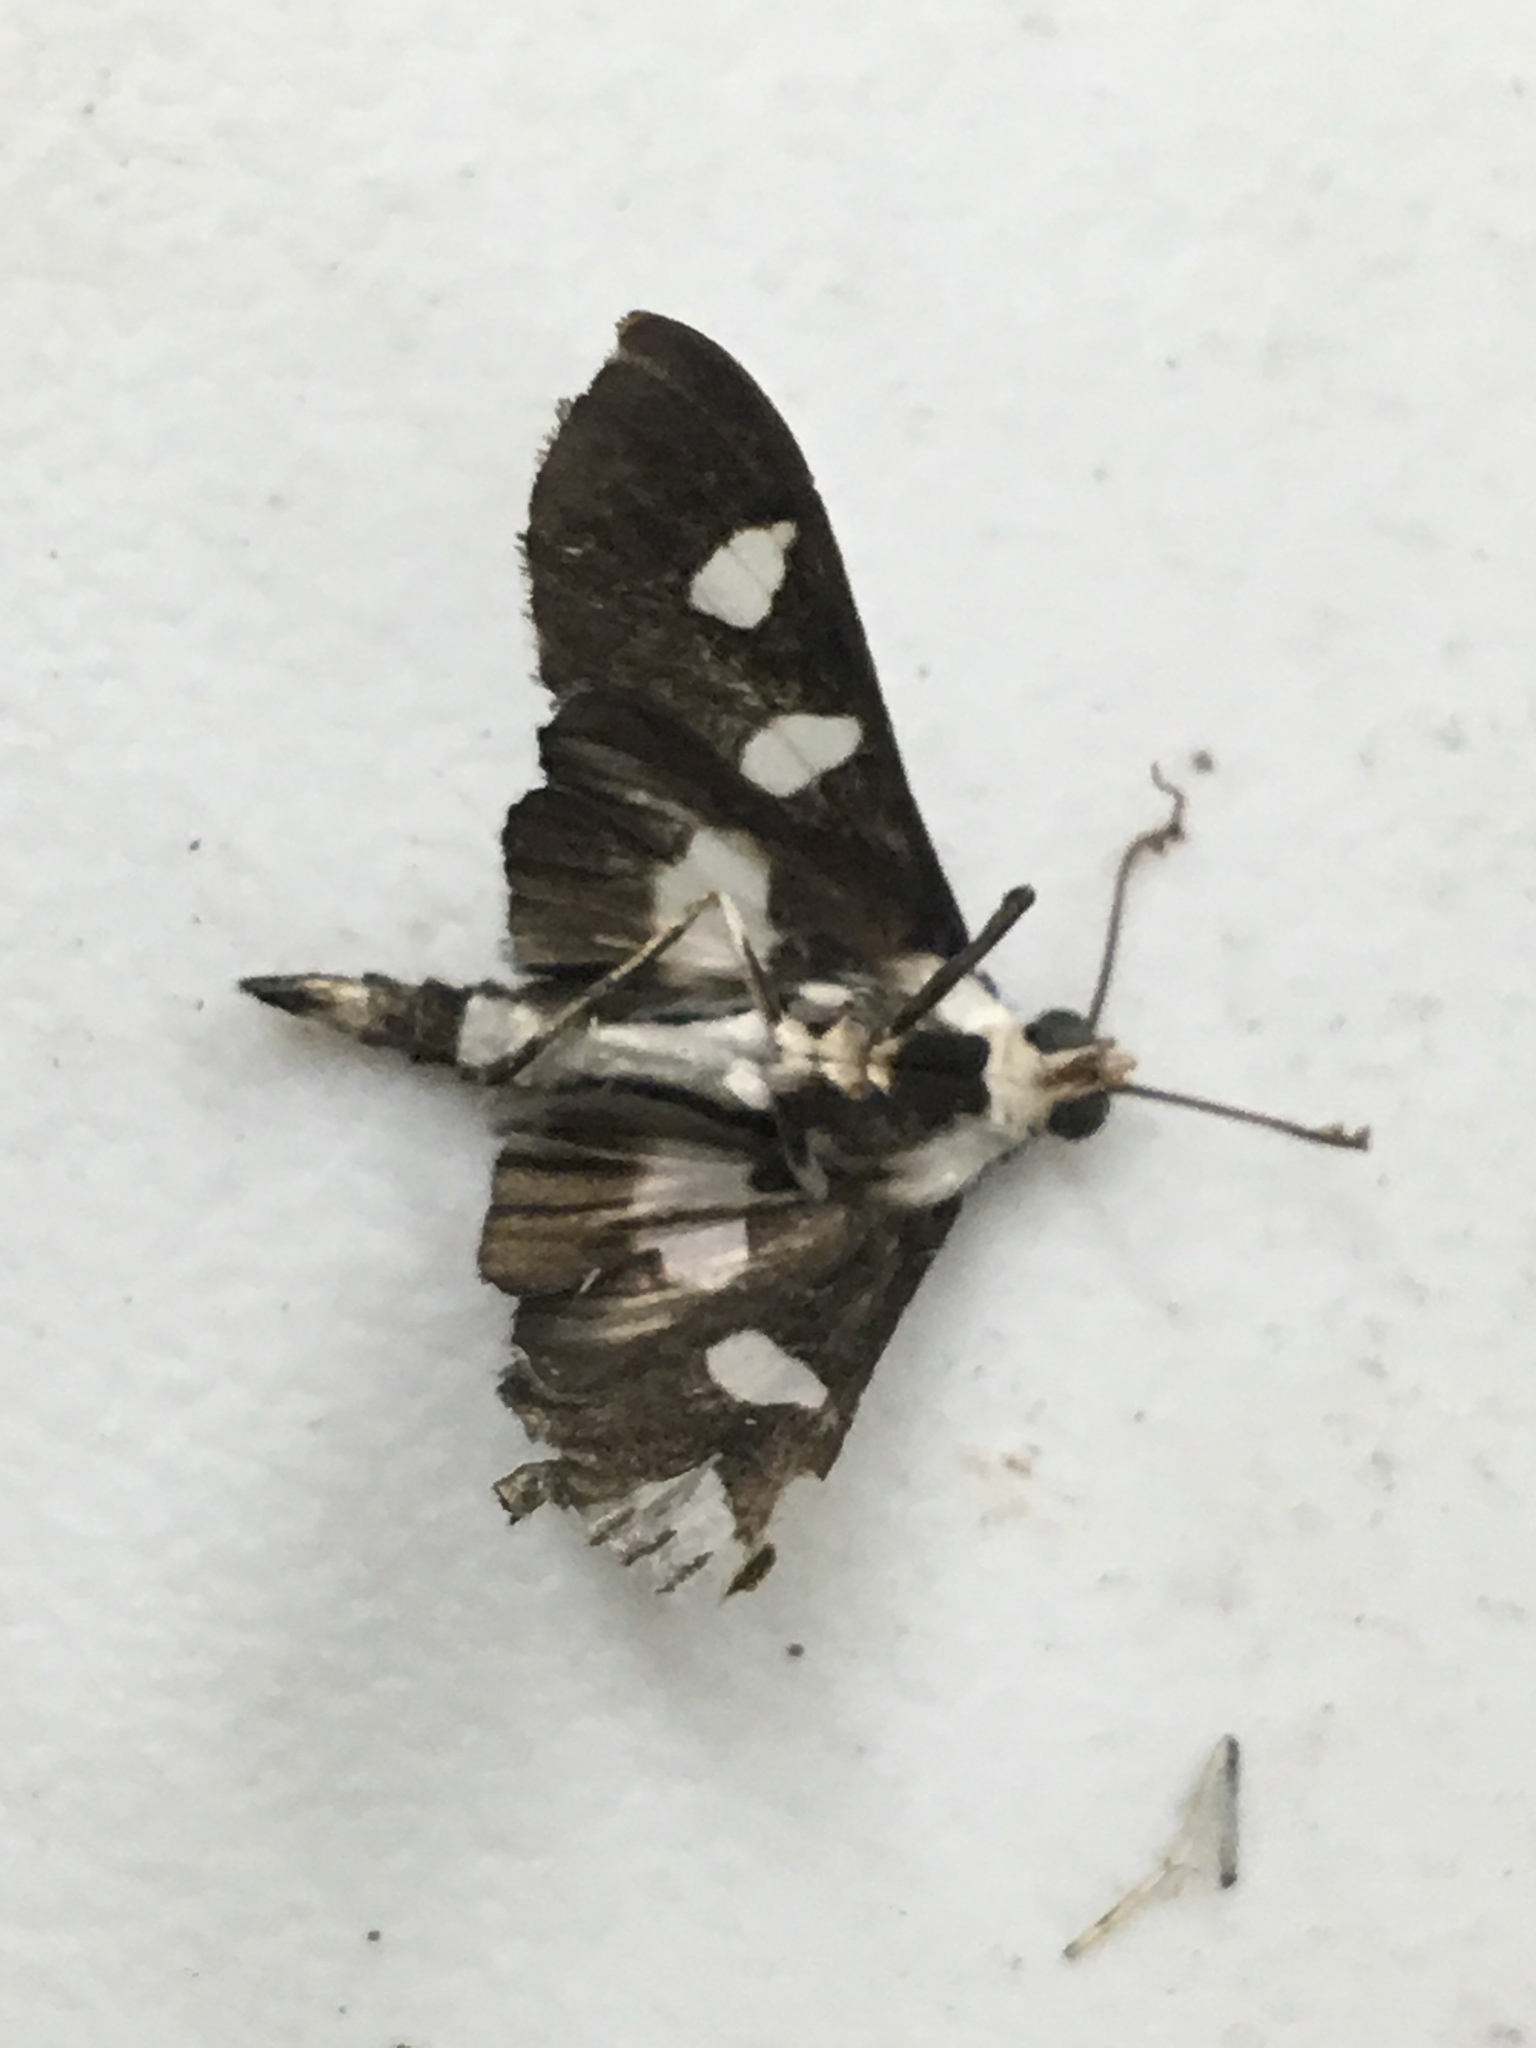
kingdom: Animalia
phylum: Arthropoda
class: Insecta
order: Lepidoptera
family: Crambidae
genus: Desmia
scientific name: Desmia funeralis
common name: Grape leaf folder moth
